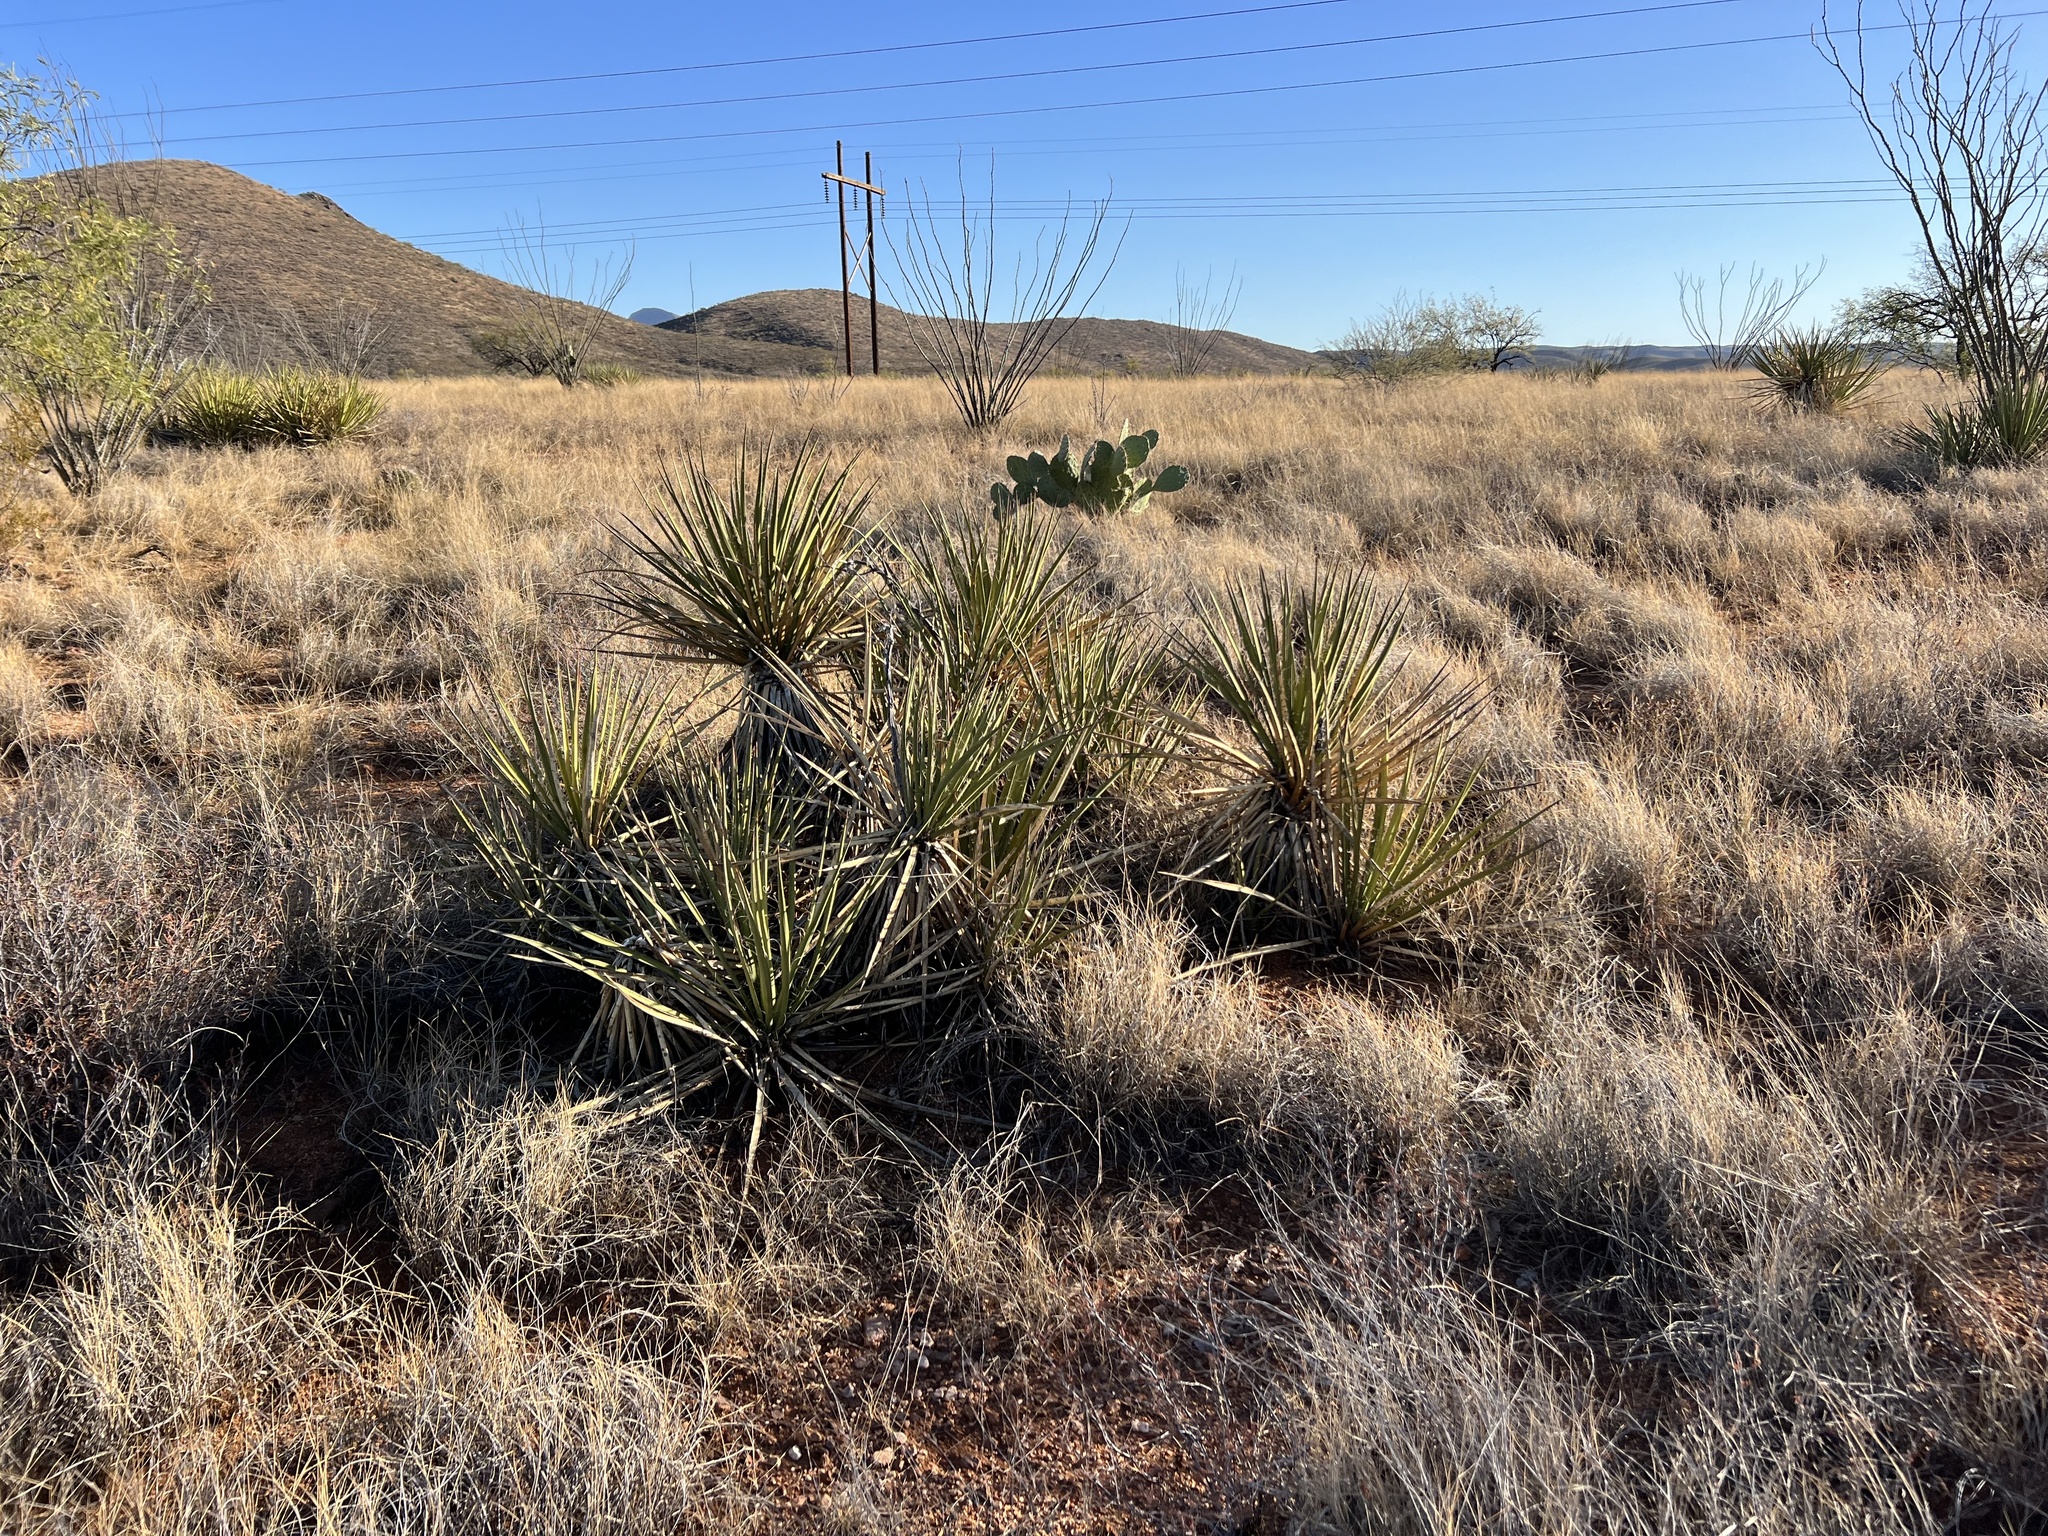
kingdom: Plantae
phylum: Tracheophyta
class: Liliopsida
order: Asparagales
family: Asparagaceae
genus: Yucca
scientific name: Yucca baccata
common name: Banana yucca
